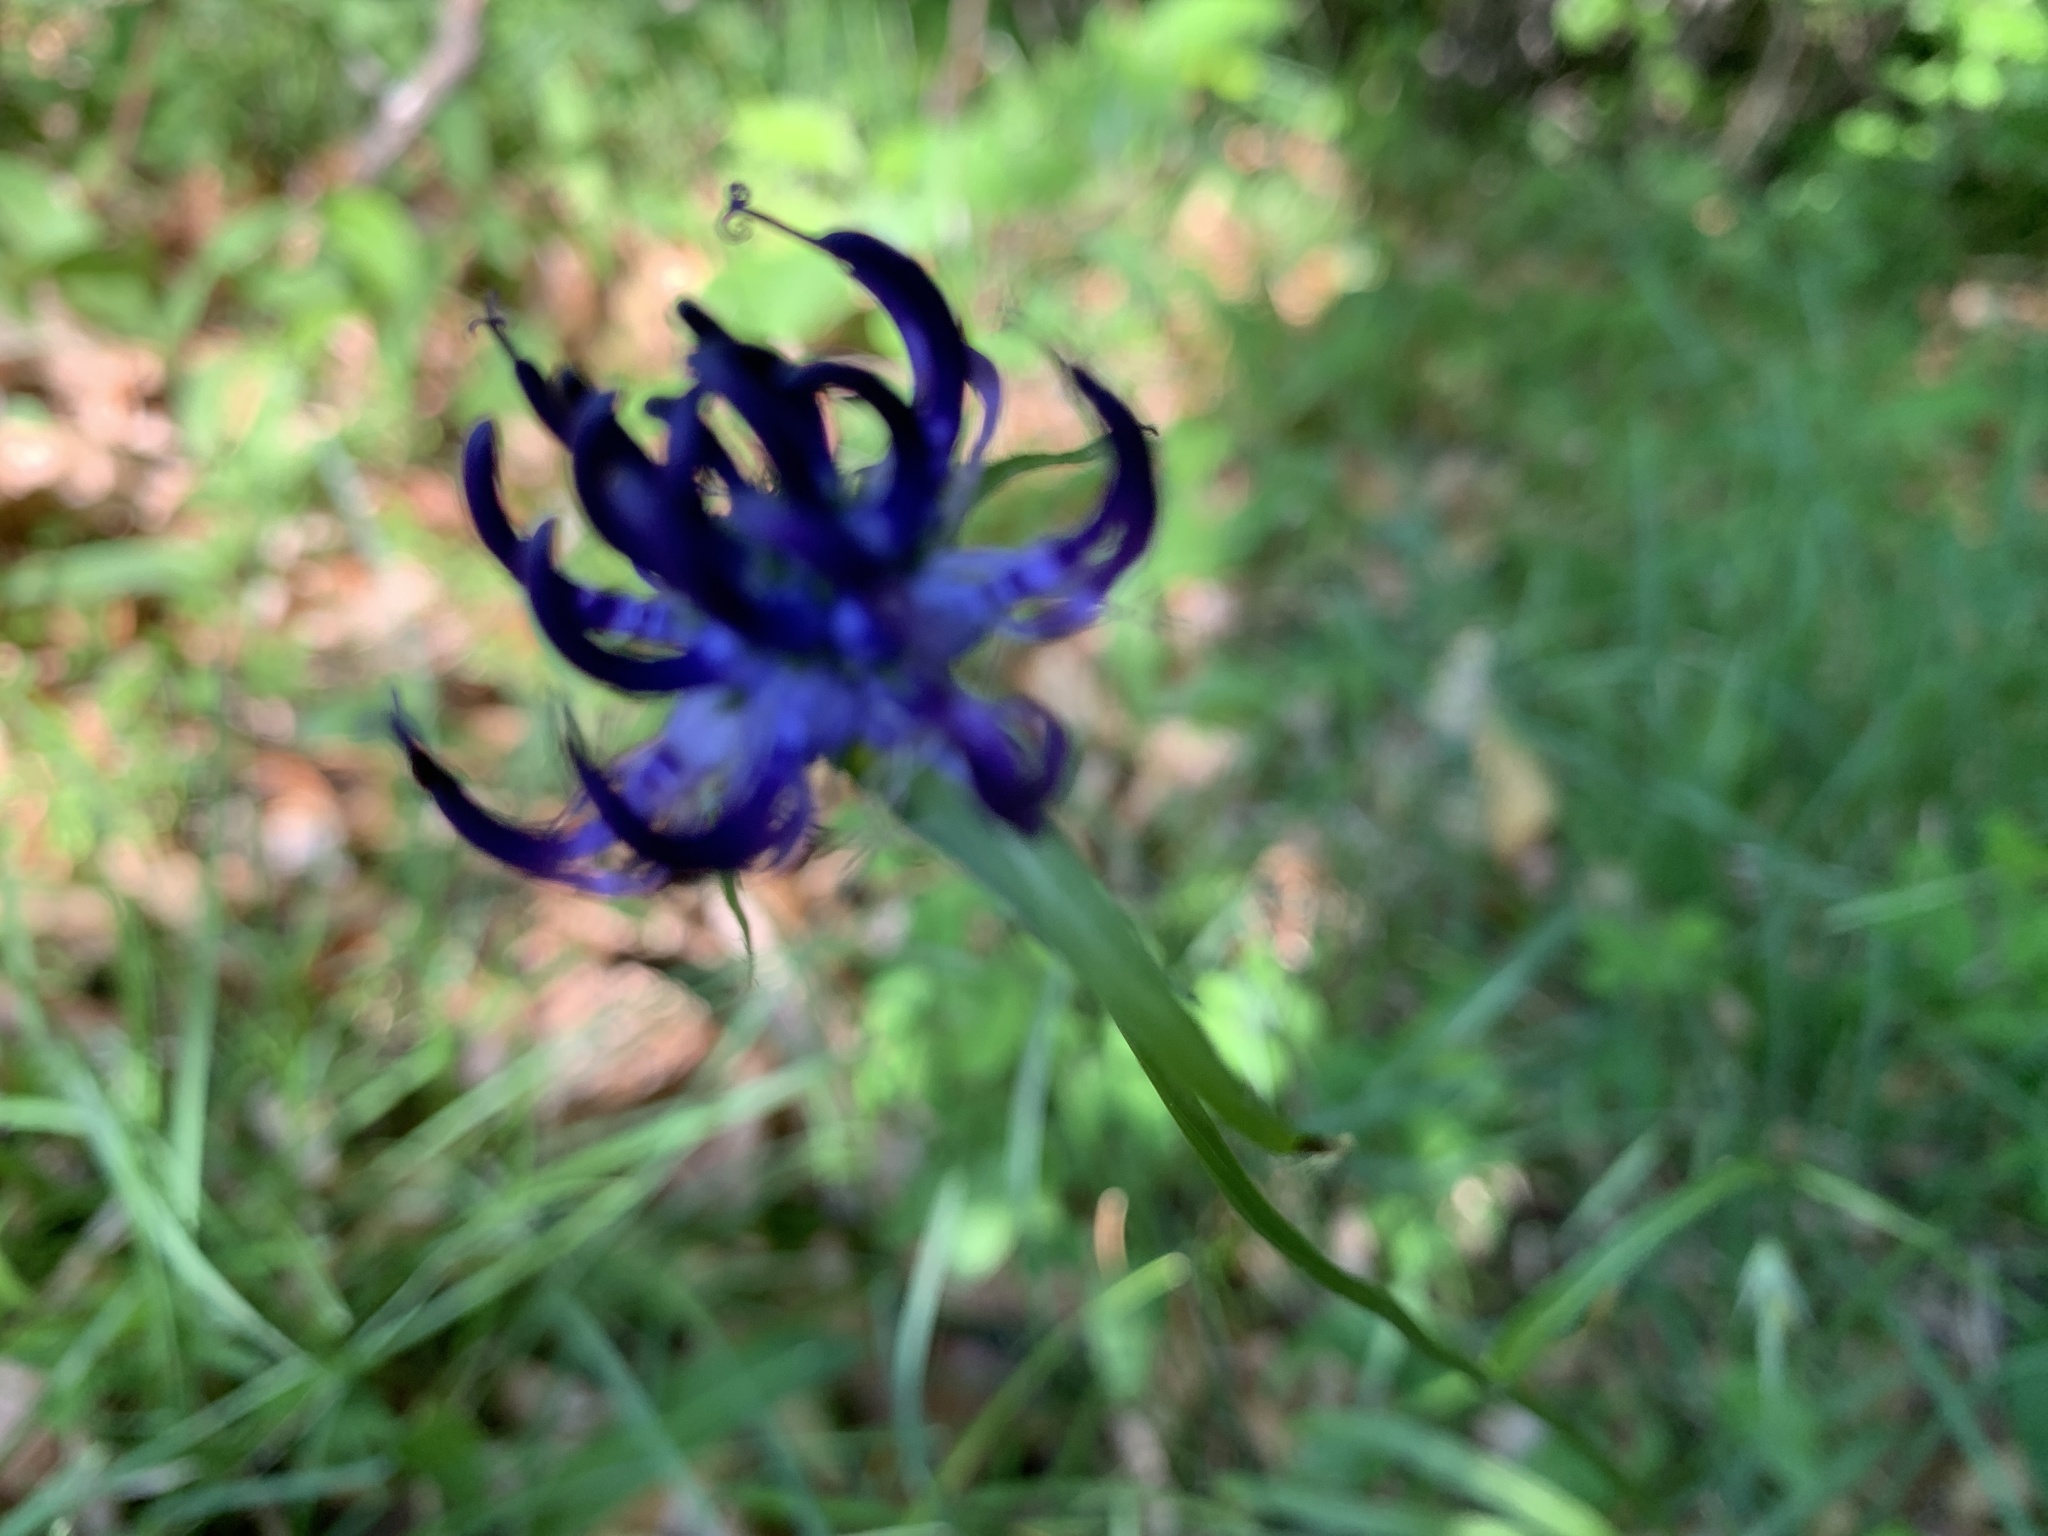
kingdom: Plantae
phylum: Tracheophyta
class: Magnoliopsida
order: Asterales
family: Campanulaceae
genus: Phyteuma
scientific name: Phyteuma orbiculare
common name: Round-headed rampion
